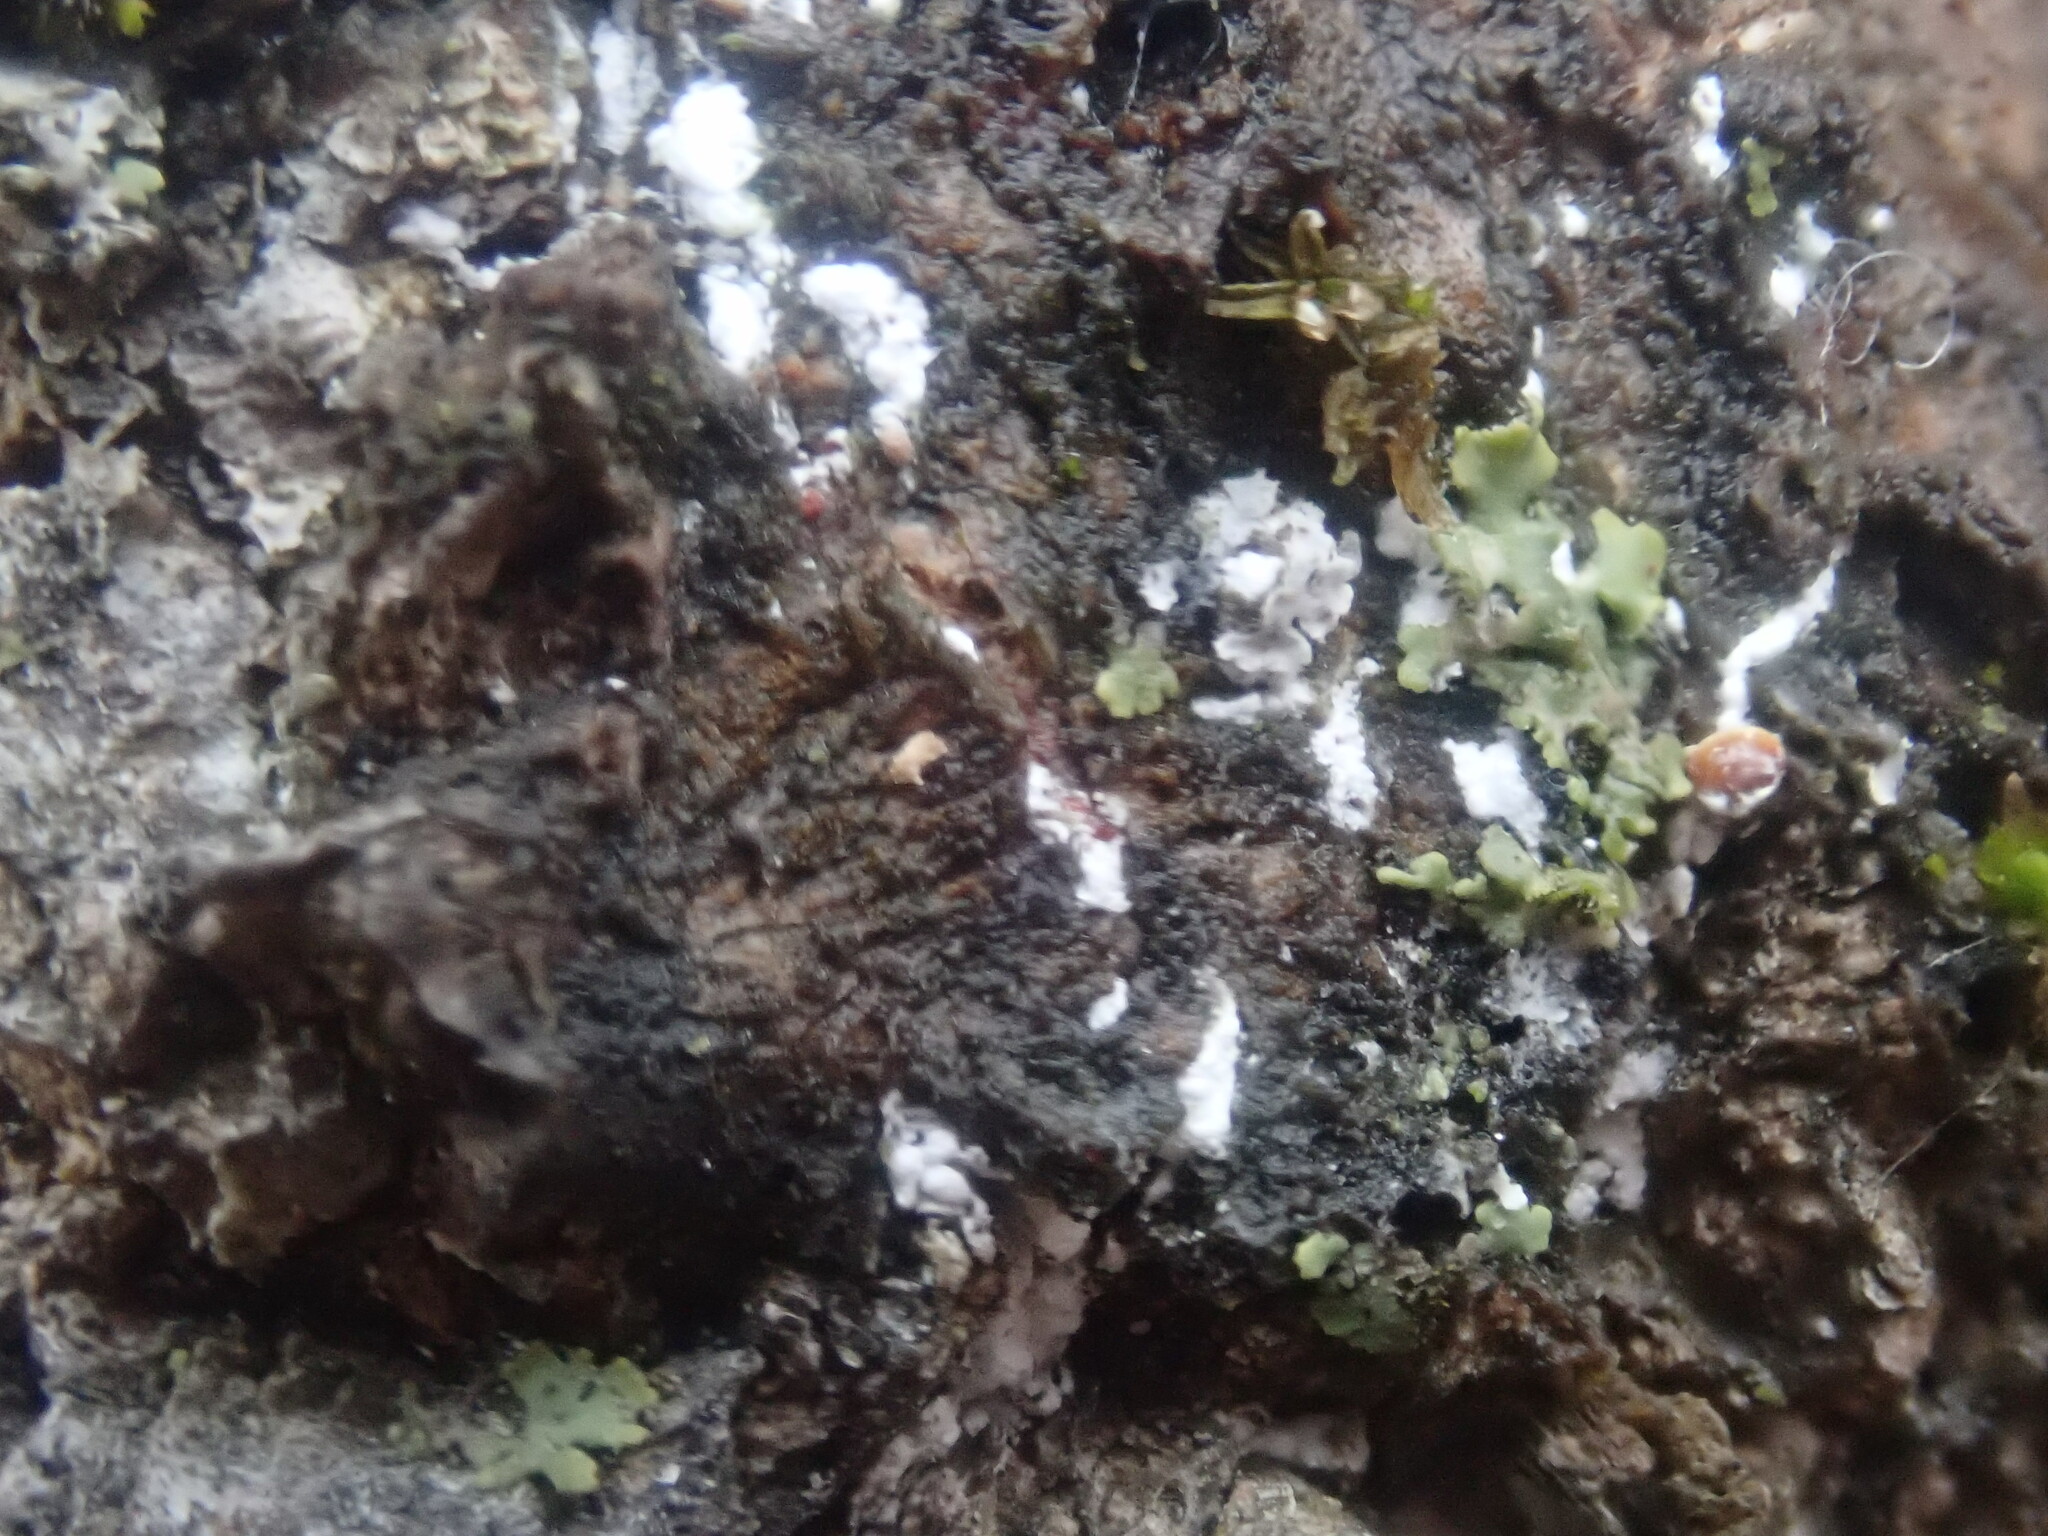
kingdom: Animalia
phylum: Arthropoda
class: Insecta
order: Hemiptera
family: Eriococcidae
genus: Cryptococcus
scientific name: Cryptococcus fagisuga
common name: Beech scale
